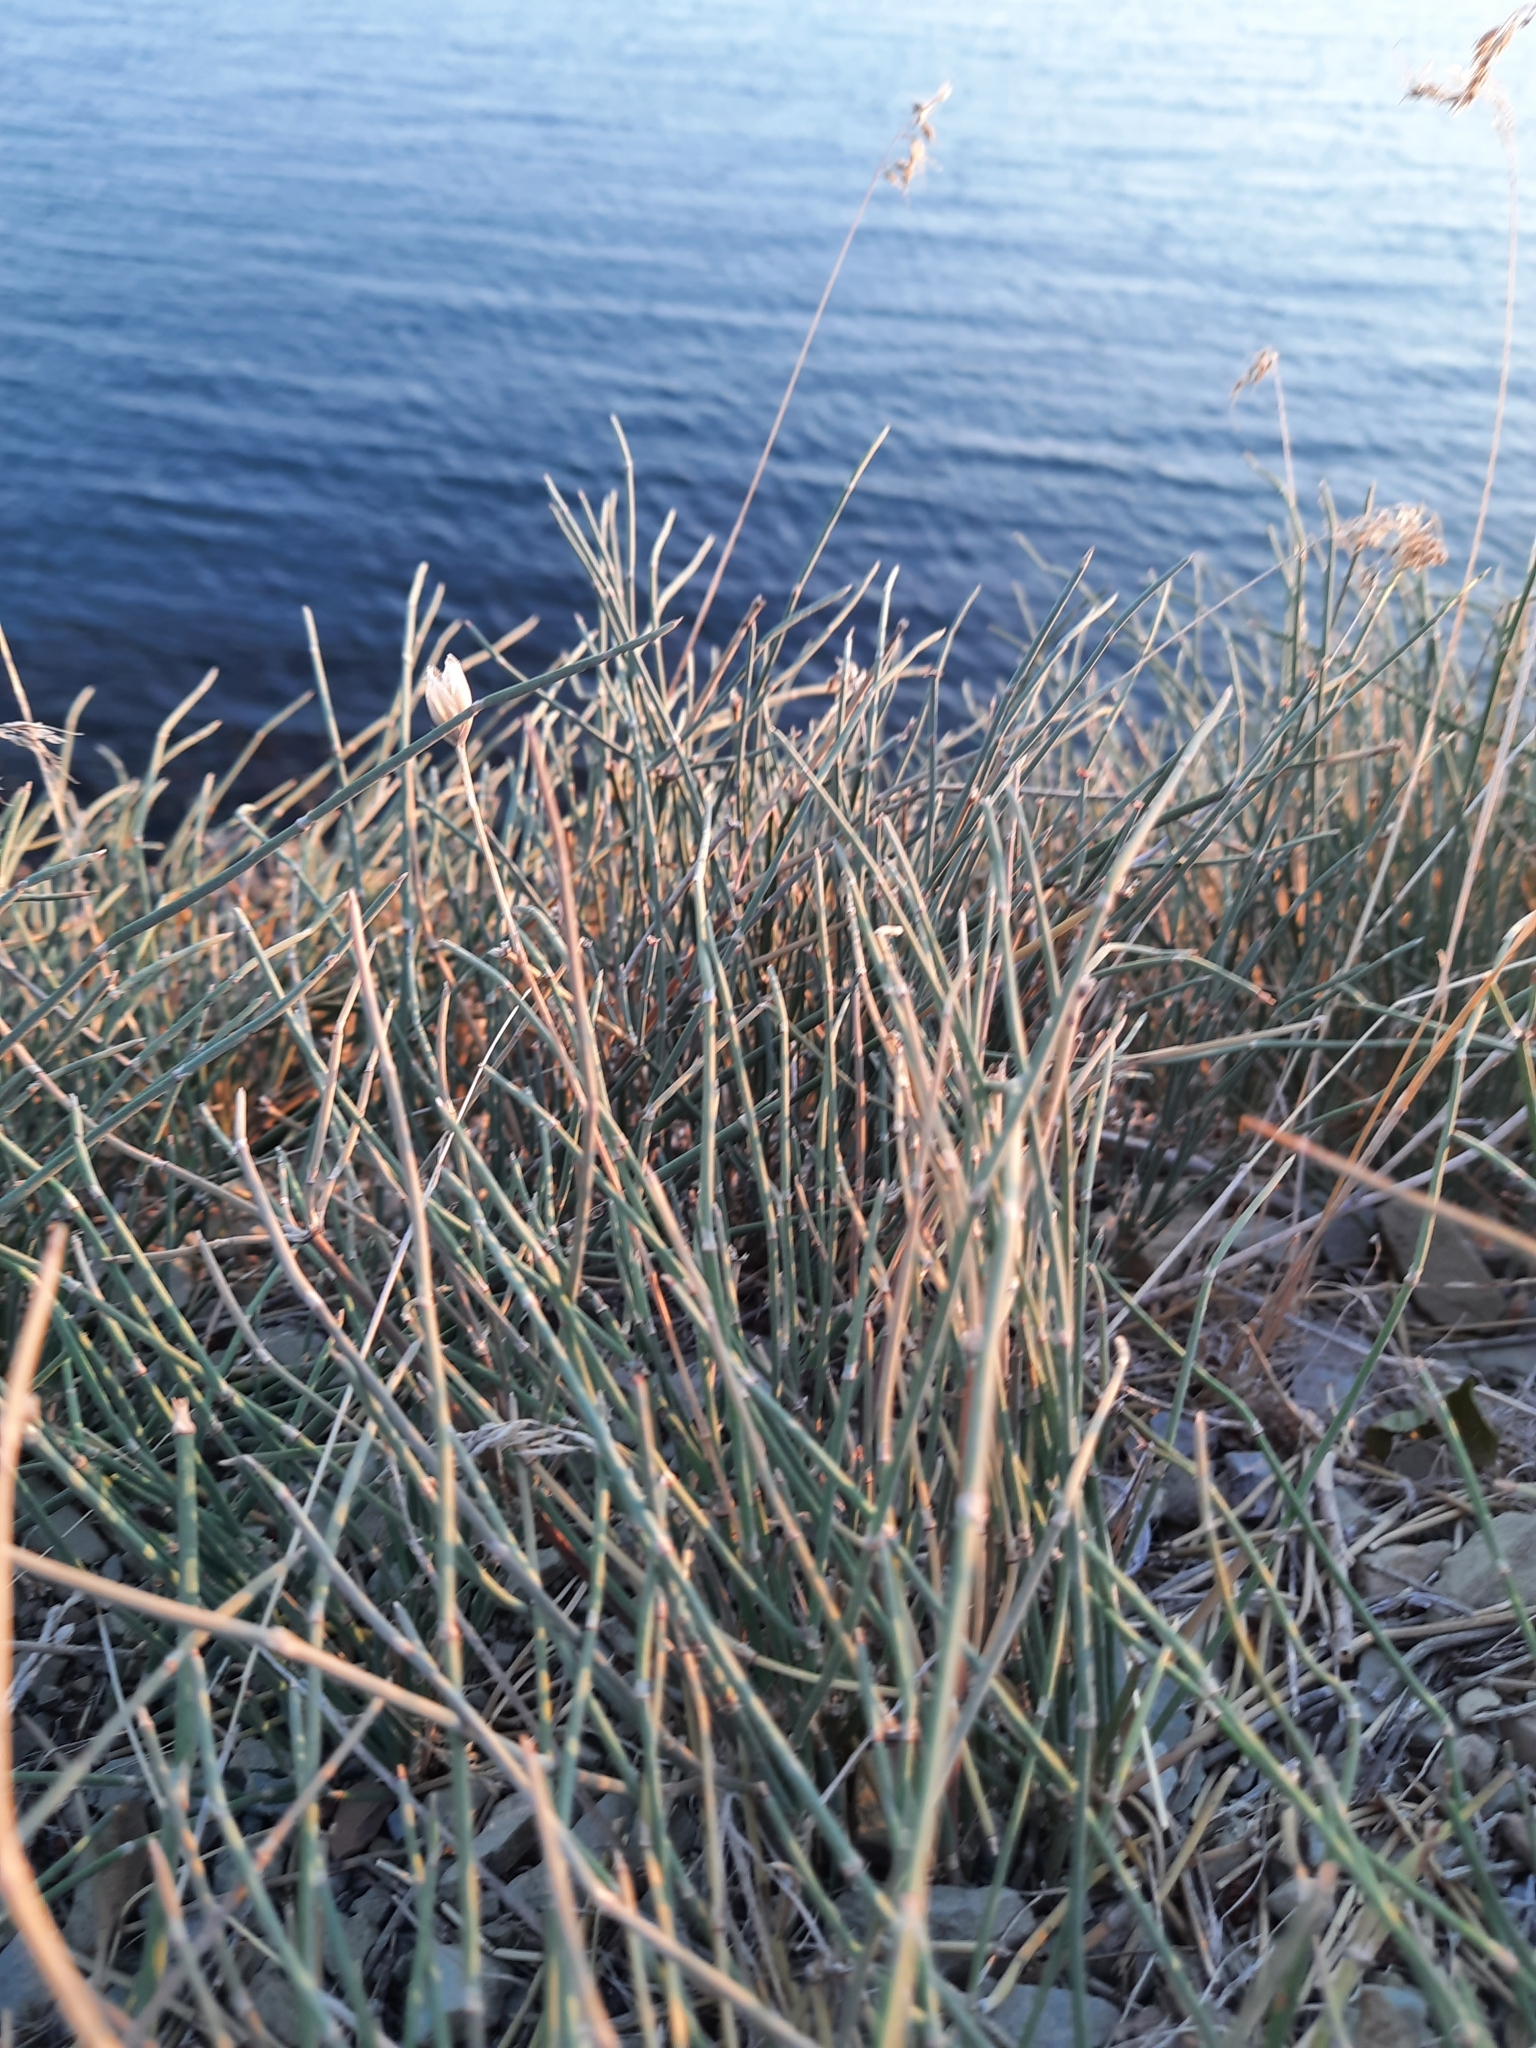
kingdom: Plantae
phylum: Tracheophyta
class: Gnetopsida
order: Ephedrales
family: Ephedraceae
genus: Ephedra
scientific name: Ephedra distachya
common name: Sea grape
